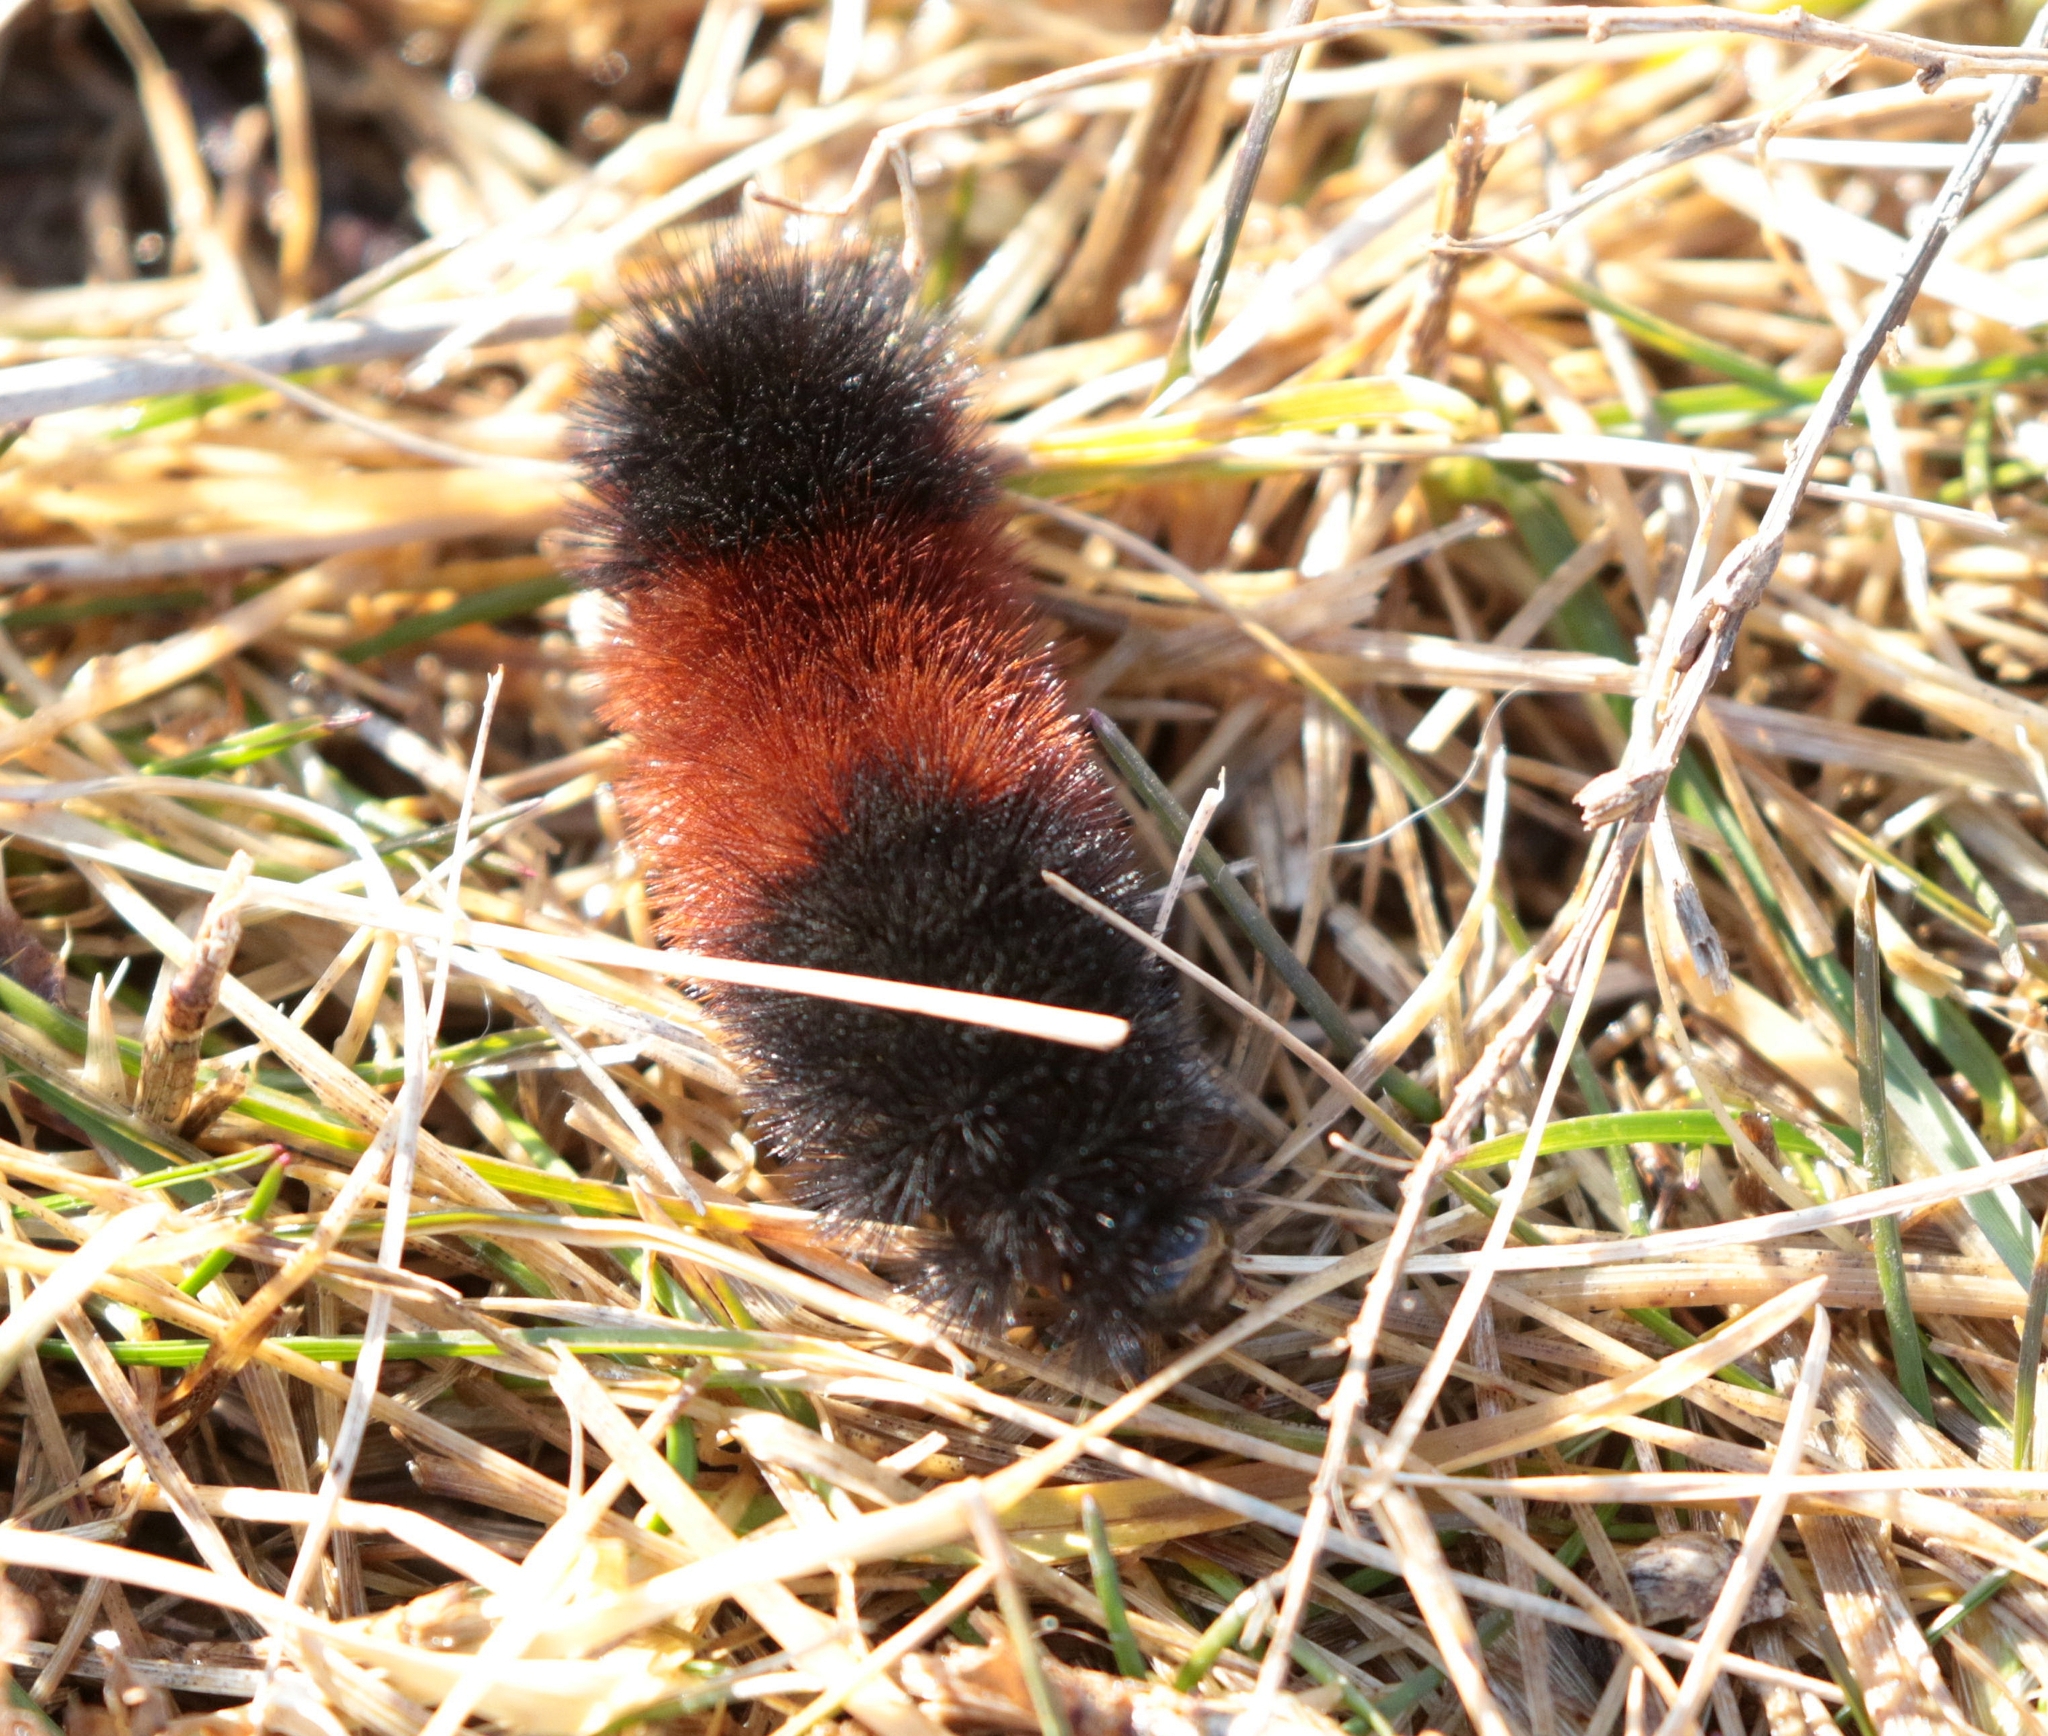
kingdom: Animalia
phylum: Arthropoda
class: Insecta
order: Lepidoptera
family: Erebidae
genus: Pyrrharctia
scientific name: Pyrrharctia isabella
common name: Isabella tiger moth
